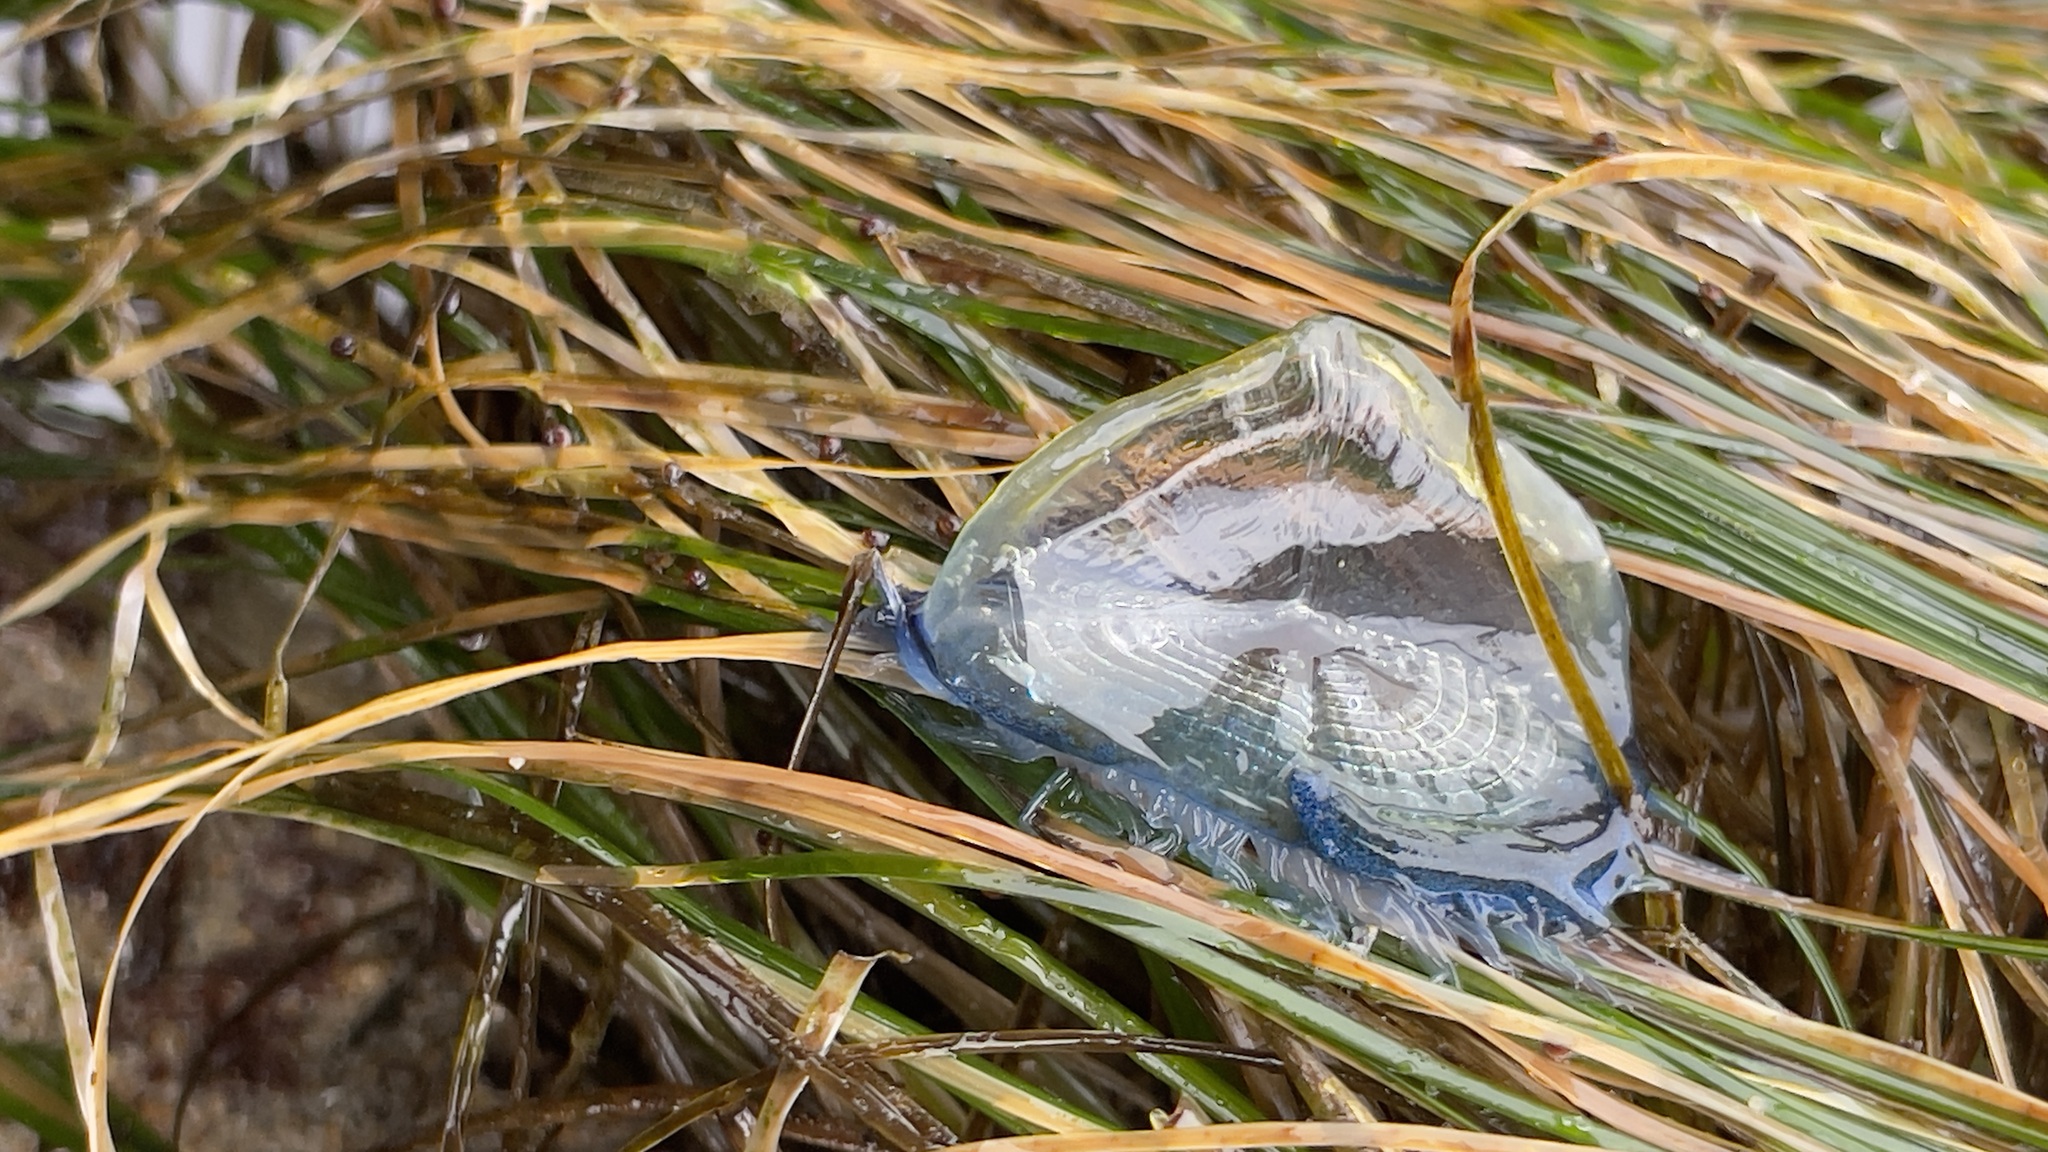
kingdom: Animalia
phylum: Cnidaria
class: Hydrozoa
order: Anthoathecata
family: Porpitidae
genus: Velella
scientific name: Velella velella
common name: By-the-wind-sailor
